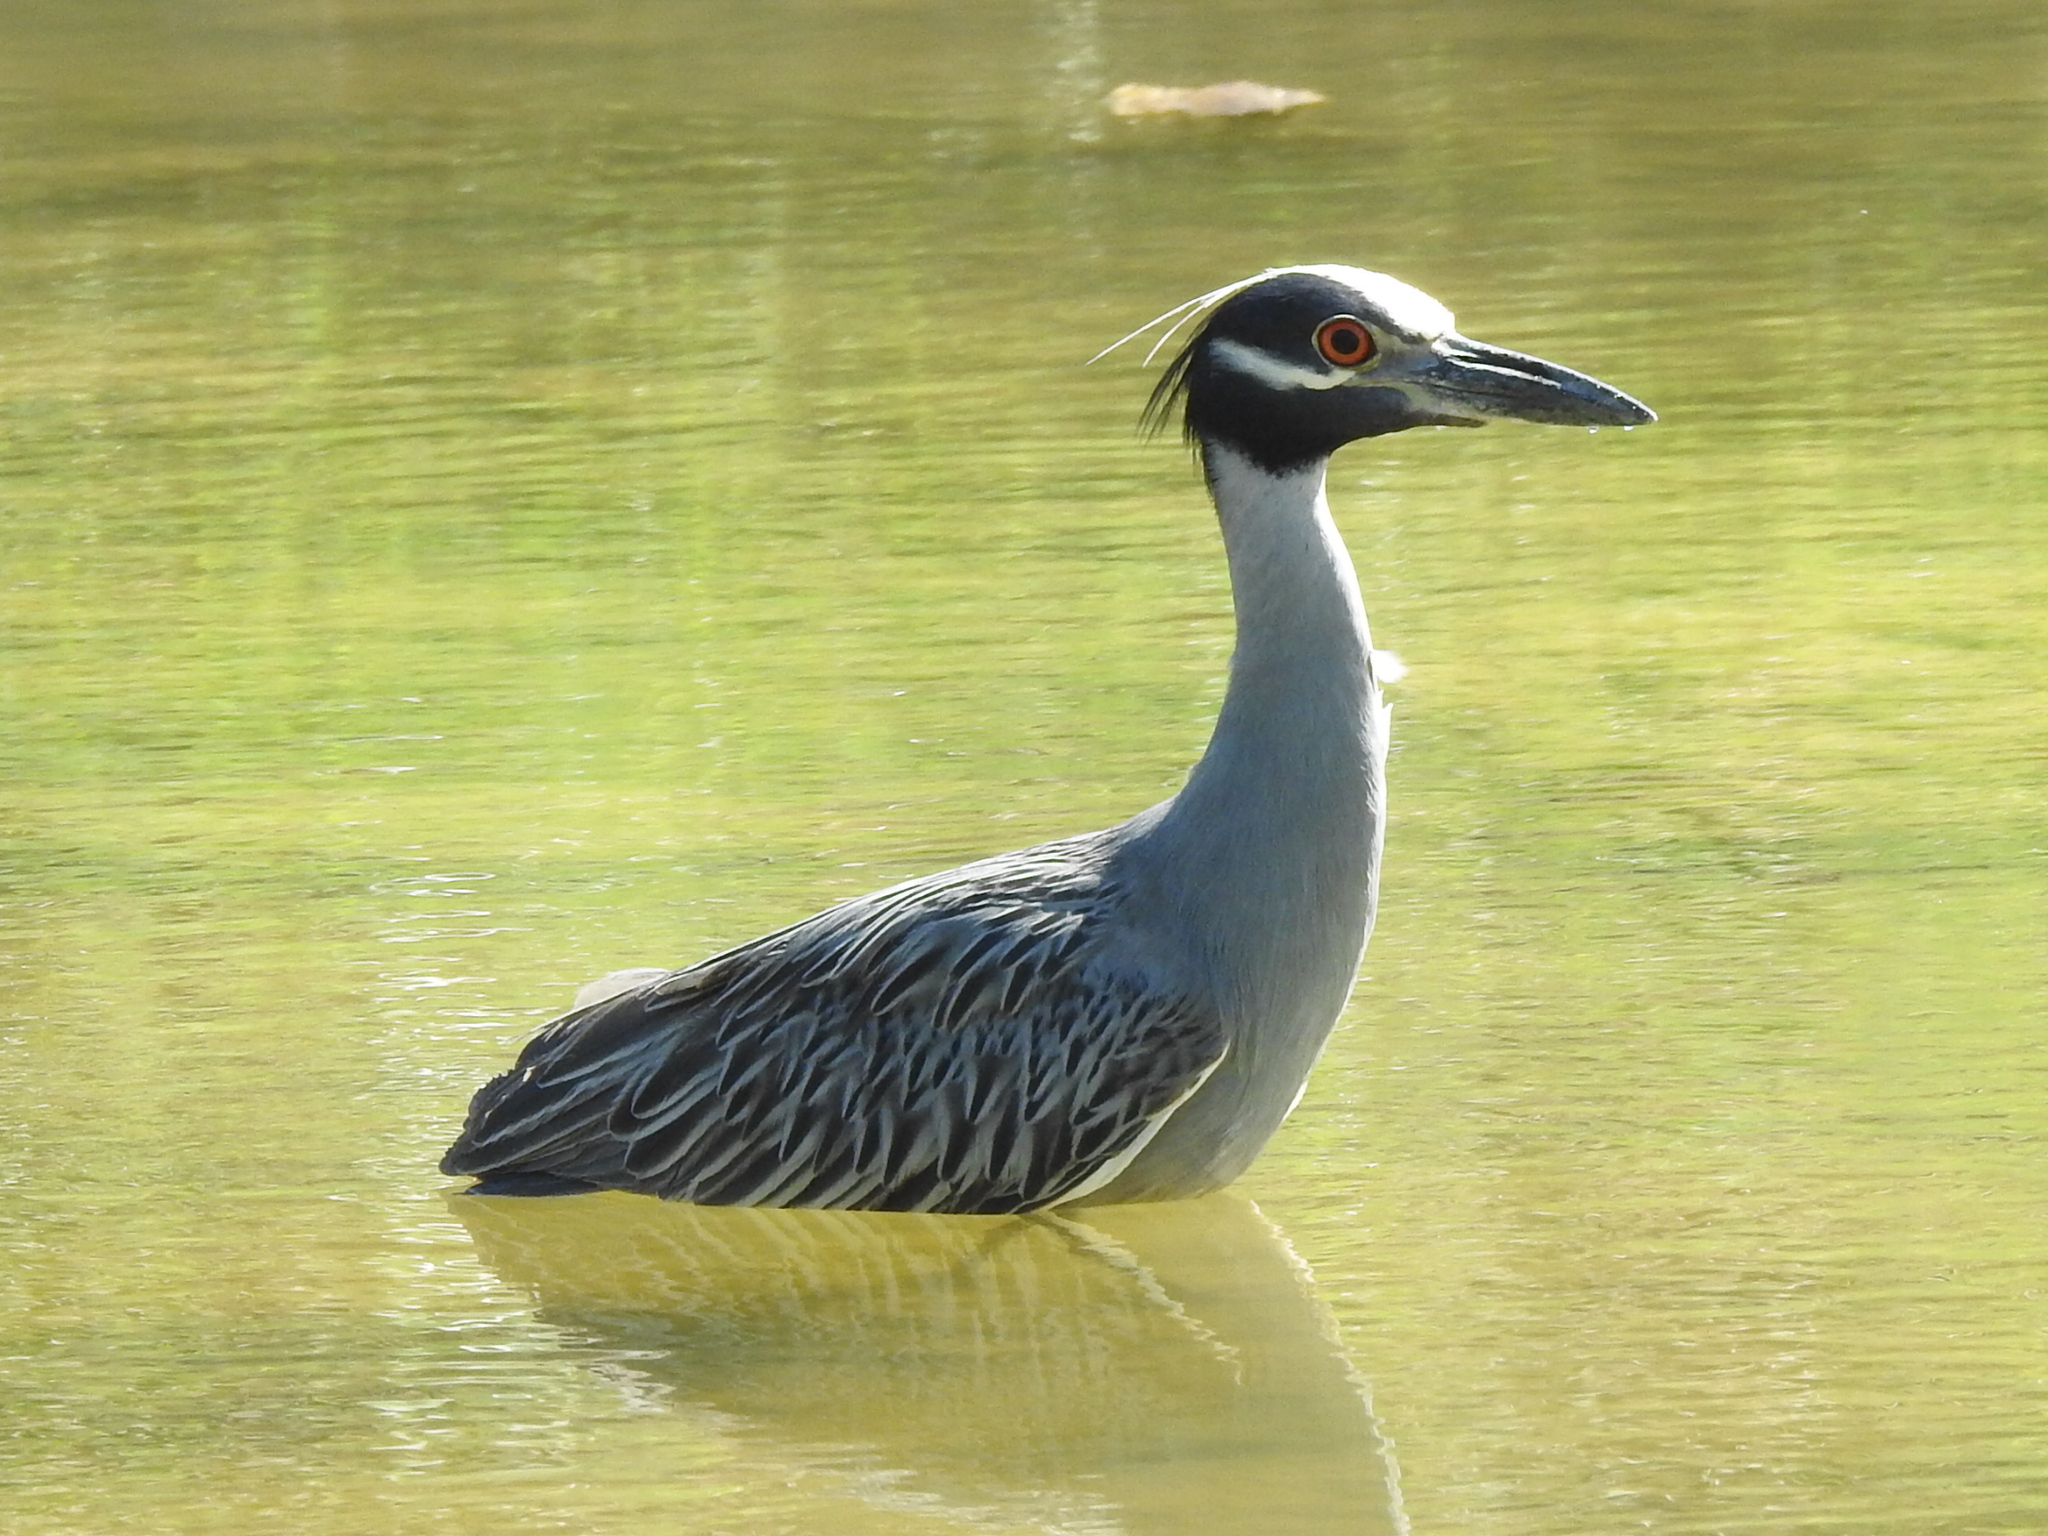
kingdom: Animalia
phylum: Chordata
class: Aves
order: Pelecaniformes
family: Ardeidae
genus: Nyctanassa
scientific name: Nyctanassa violacea
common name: Yellow-crowned night heron
